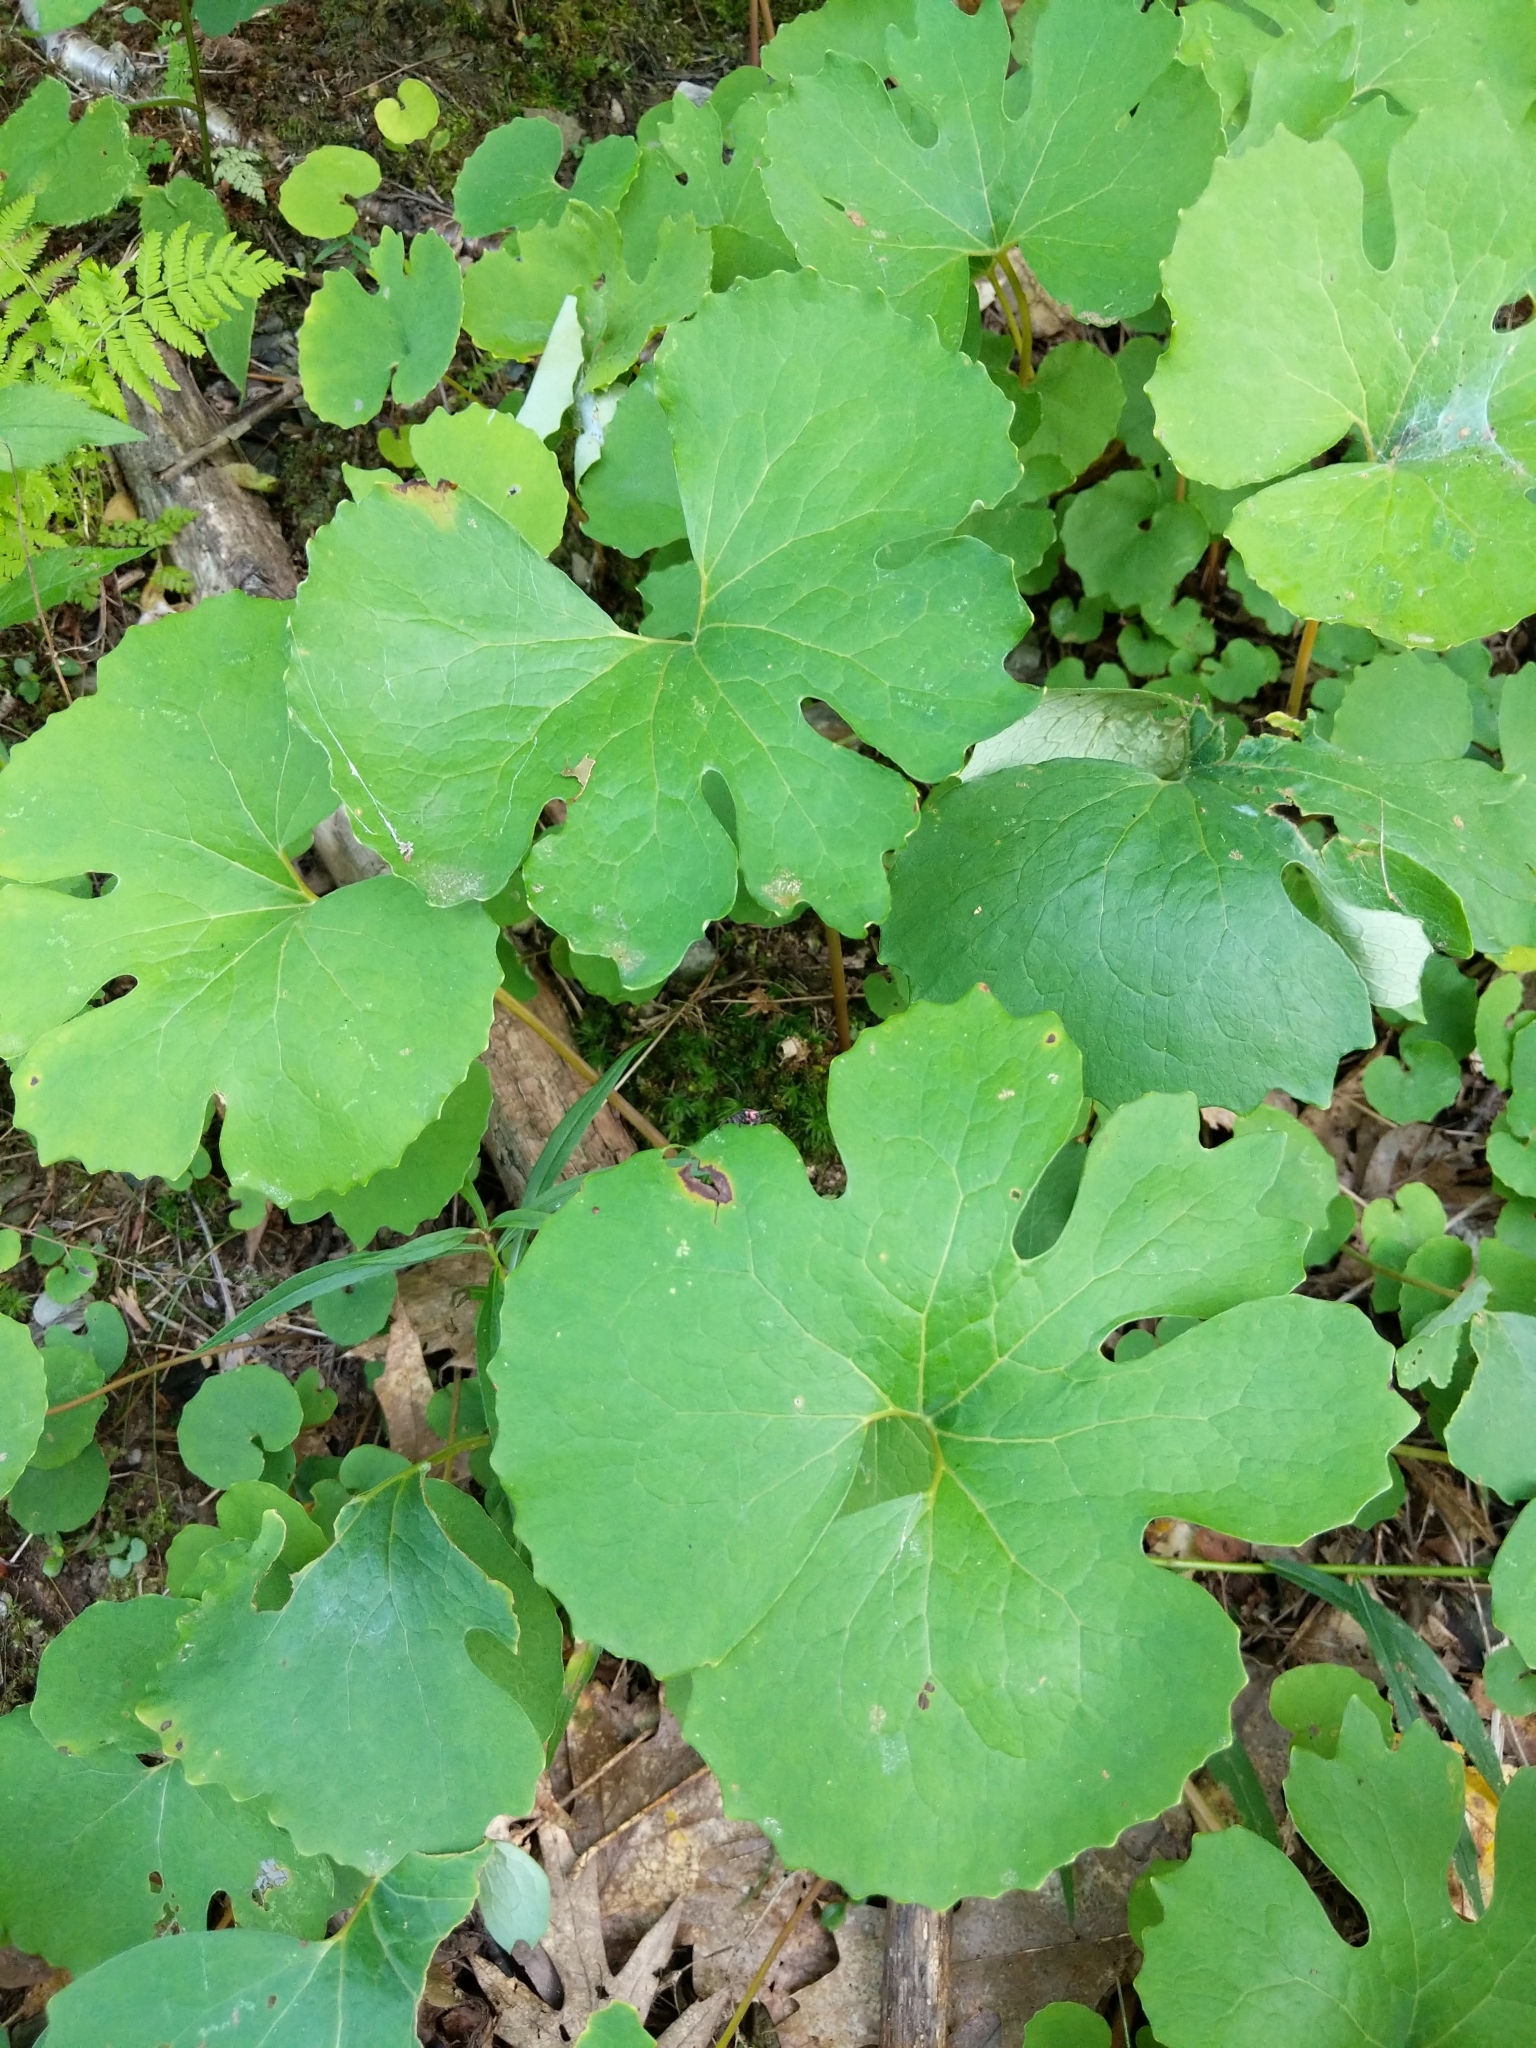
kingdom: Plantae
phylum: Tracheophyta
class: Magnoliopsida
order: Ranunculales
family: Papaveraceae
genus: Sanguinaria
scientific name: Sanguinaria canadensis
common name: Bloodroot
